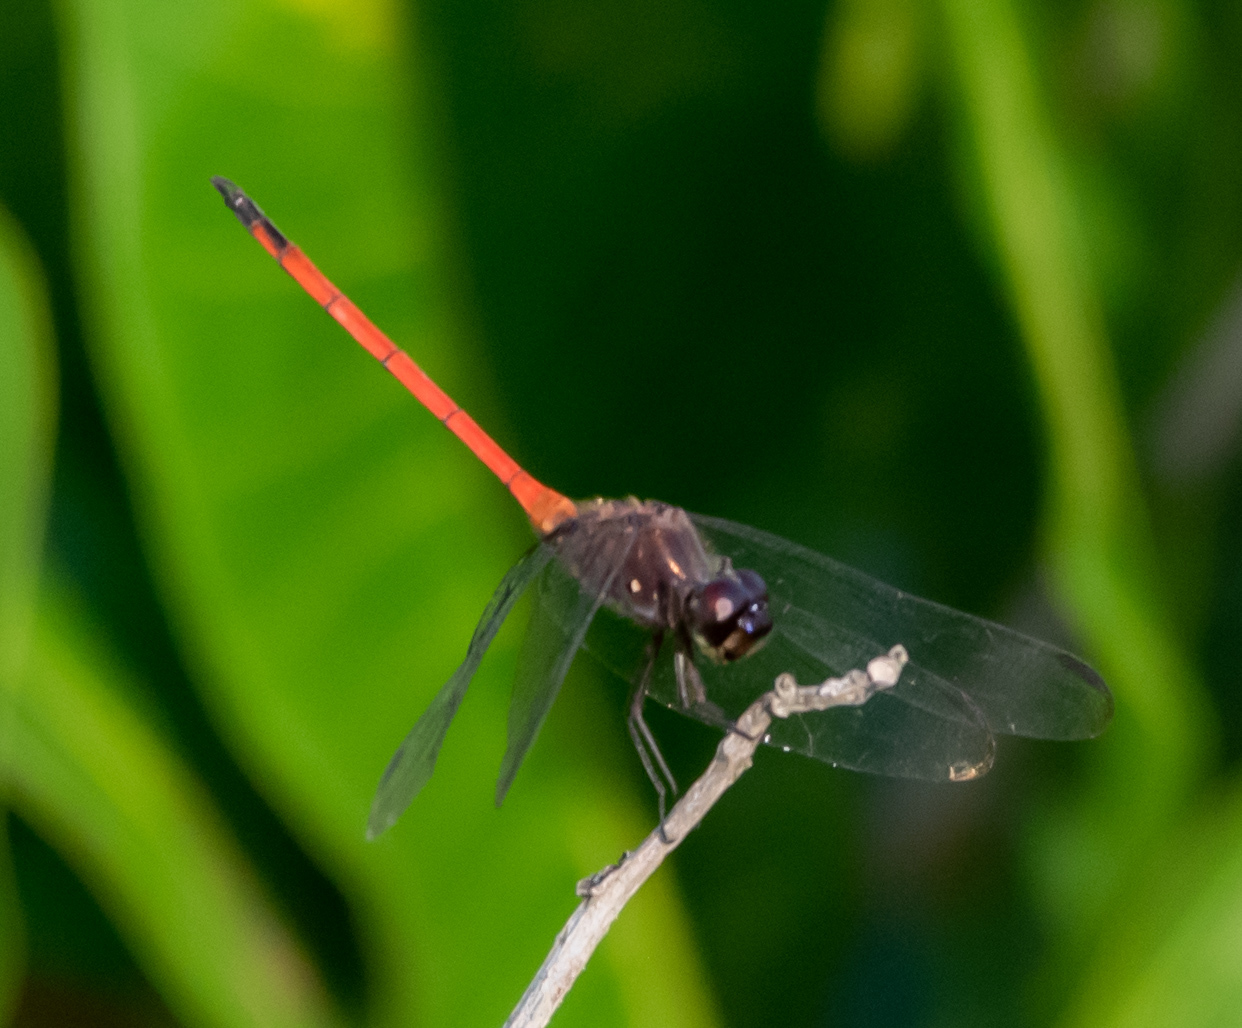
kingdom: Animalia
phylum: Arthropoda
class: Insecta
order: Odonata
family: Libellulidae
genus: Orthemis
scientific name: Orthemis levis
